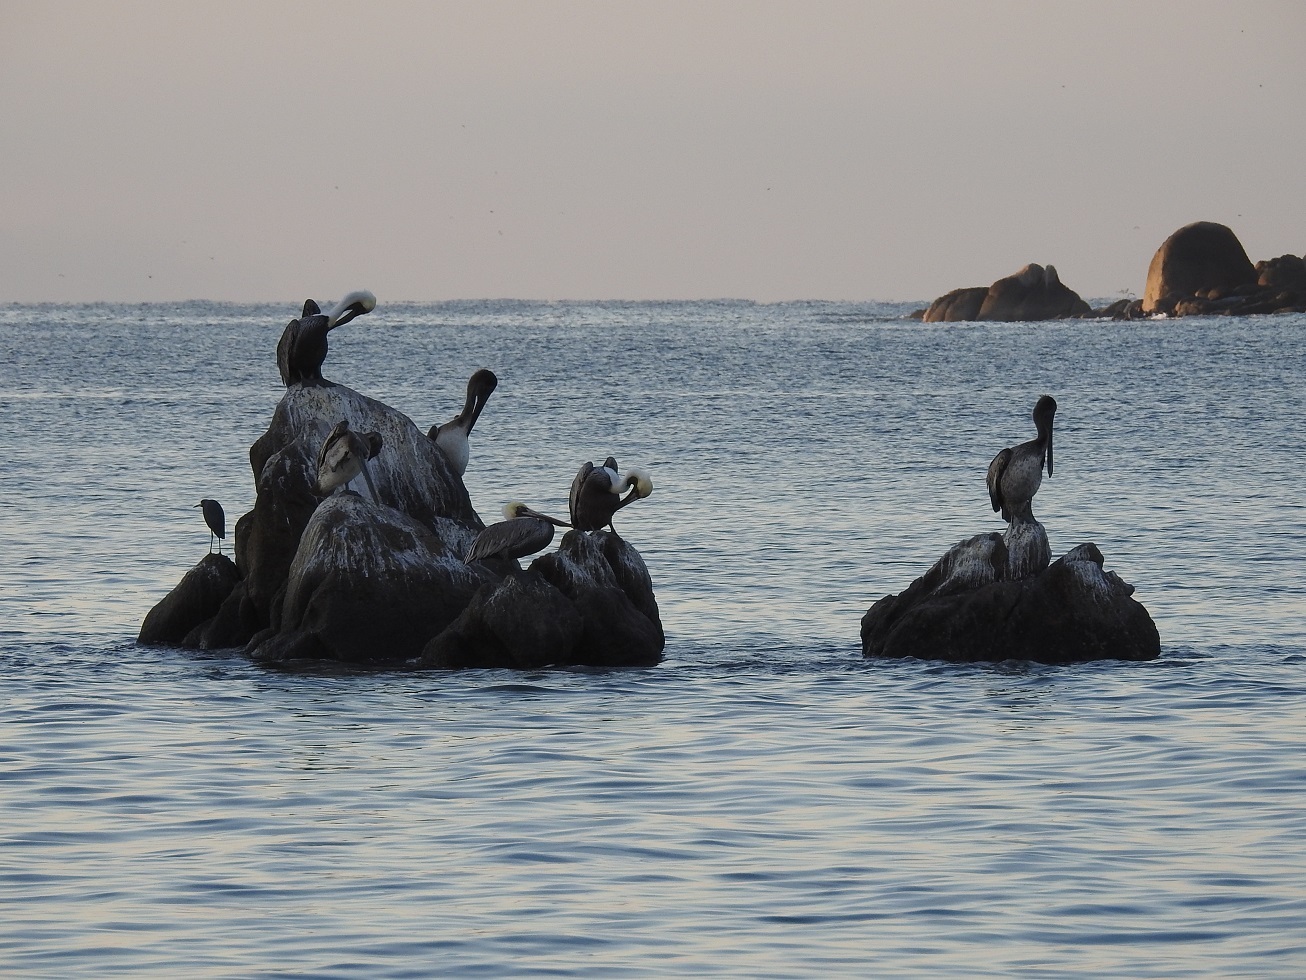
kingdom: Animalia
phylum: Chordata
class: Aves
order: Pelecaniformes
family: Pelecanidae
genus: Pelecanus
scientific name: Pelecanus occidentalis
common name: Brown pelican
